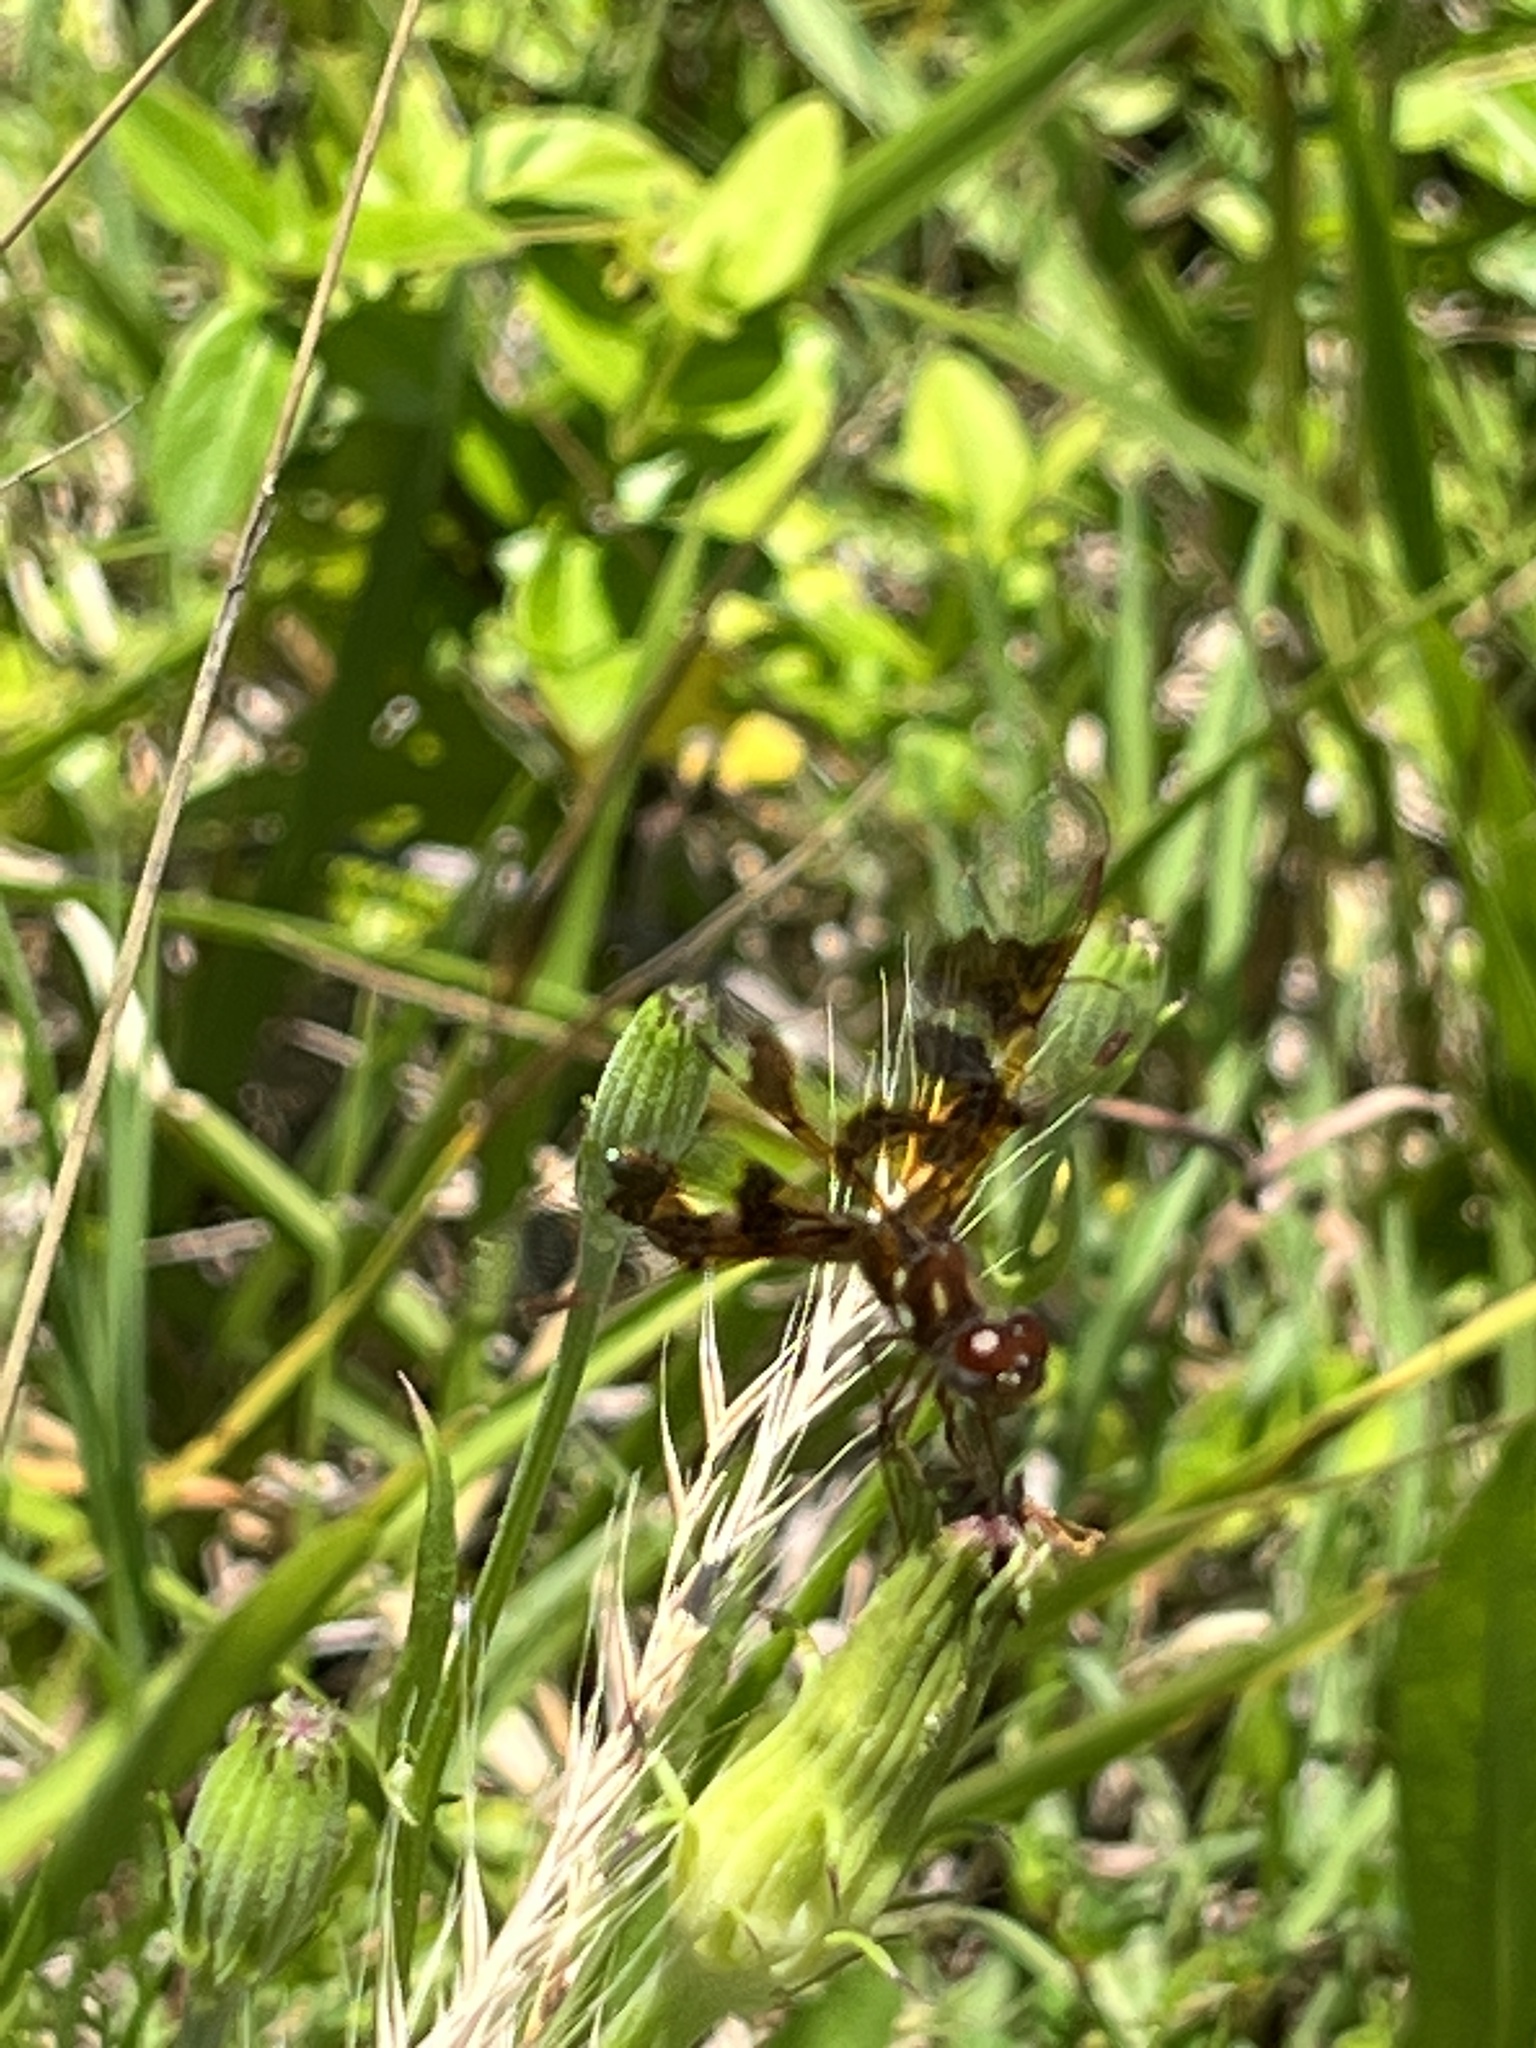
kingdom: Animalia
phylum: Arthropoda
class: Insecta
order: Odonata
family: Libellulidae
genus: Perithemis
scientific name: Perithemis tenera
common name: Eastern amberwing
